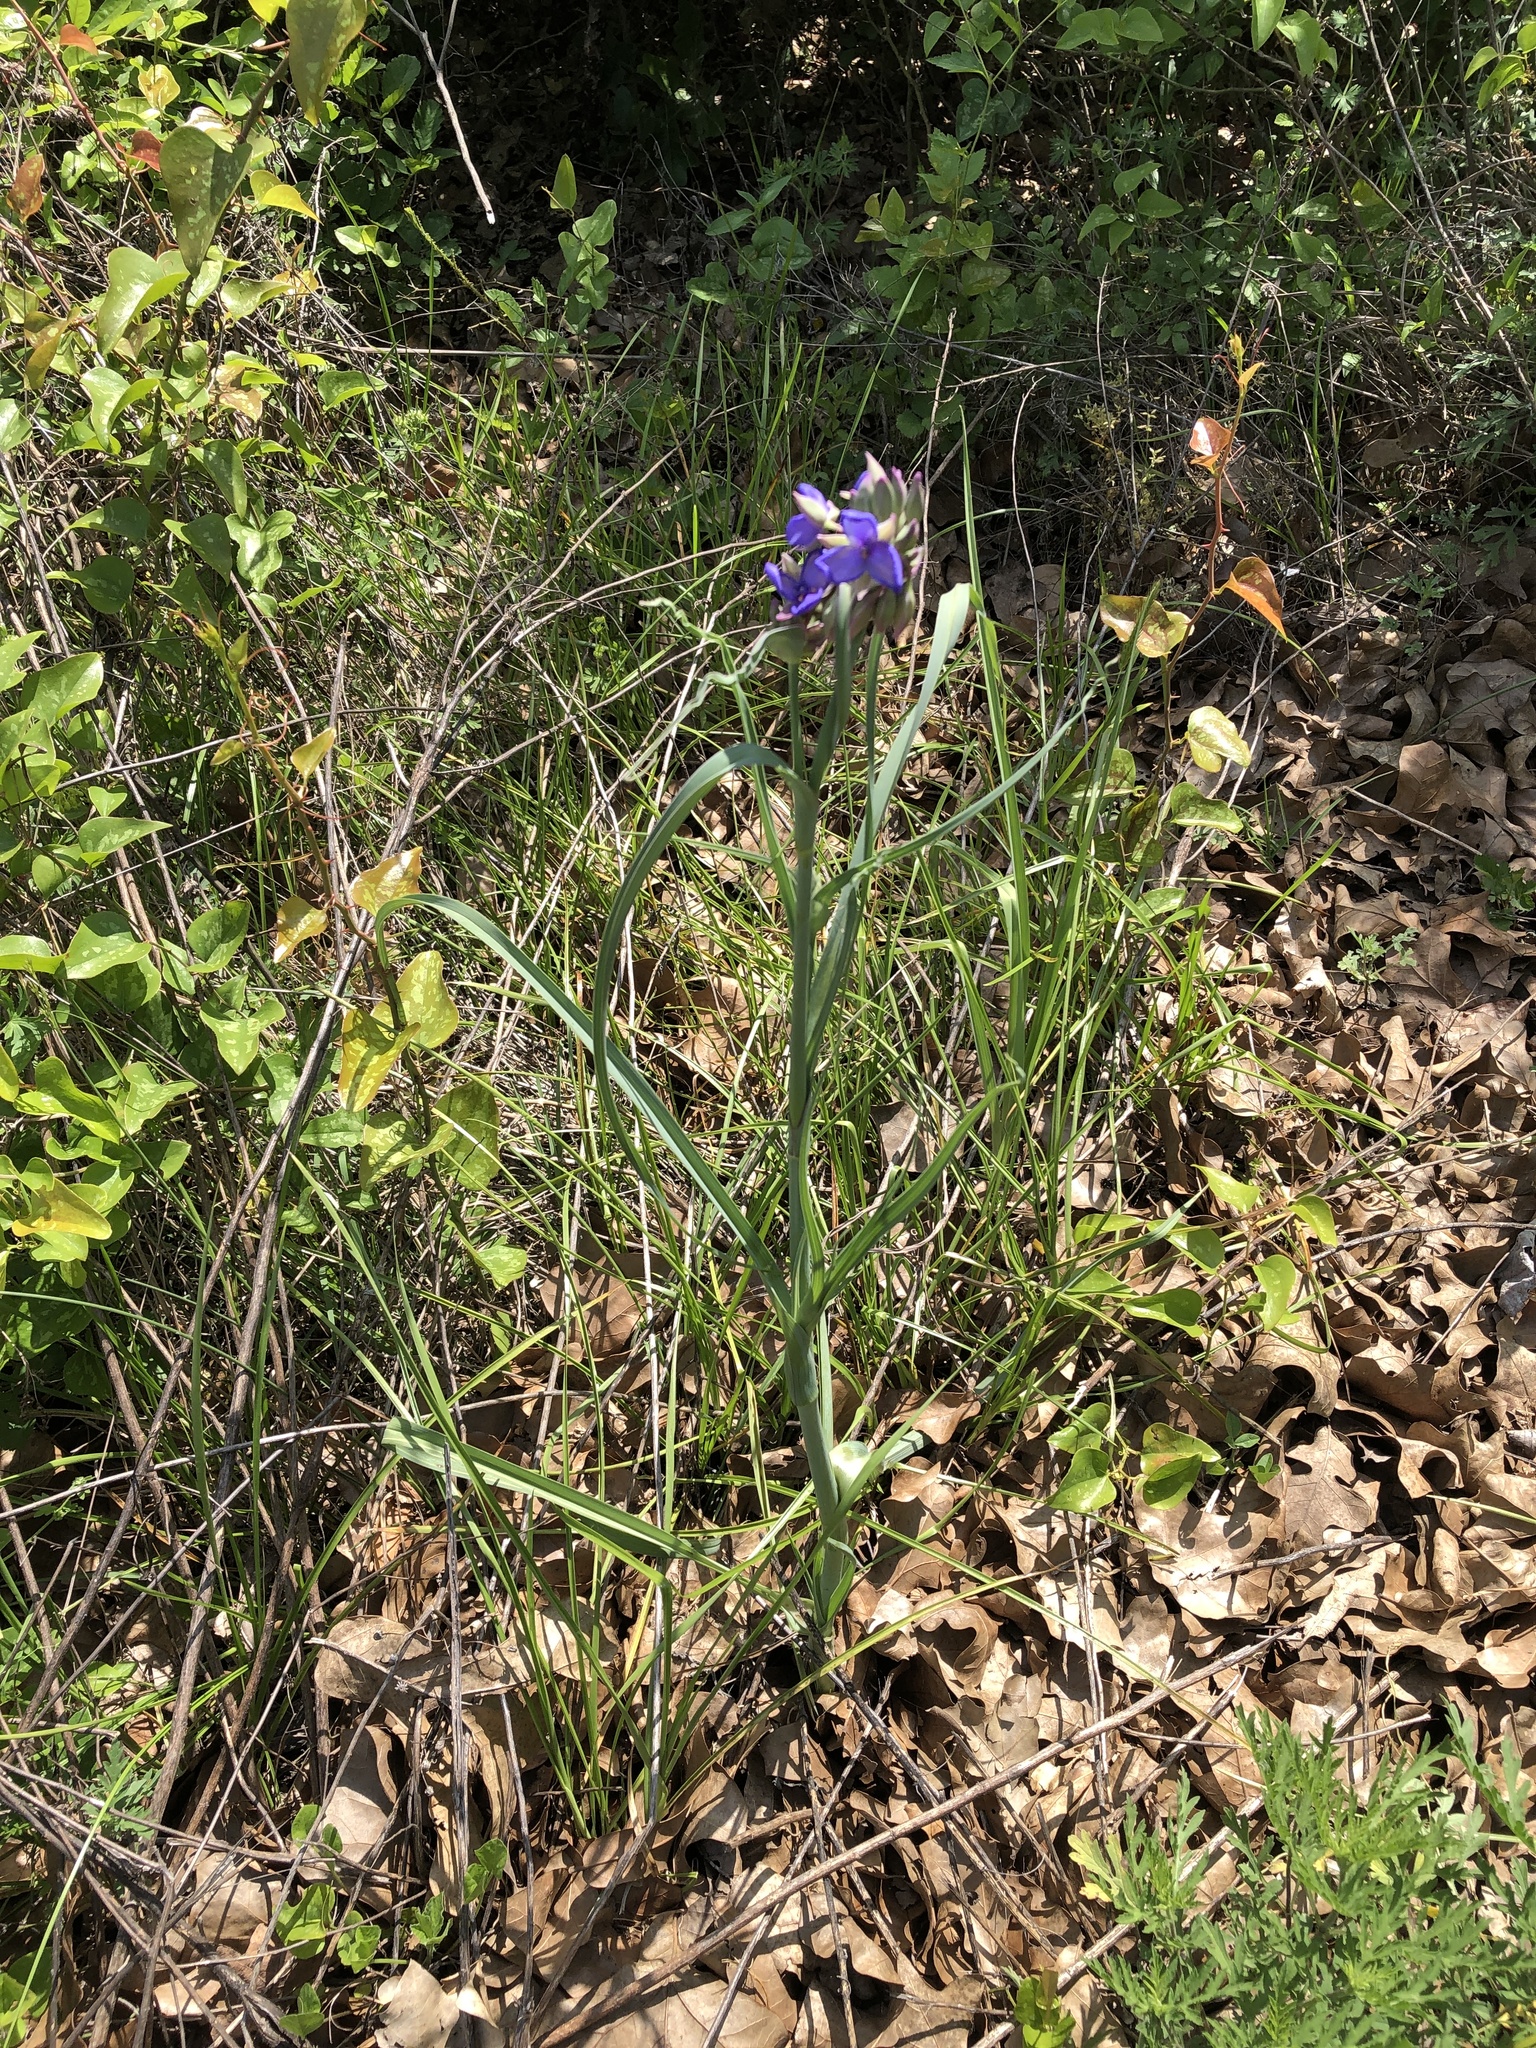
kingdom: Plantae
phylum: Tracheophyta
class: Liliopsida
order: Commelinales
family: Commelinaceae
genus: Tradescantia
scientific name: Tradescantia ohiensis
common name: Ohio spiderwort
